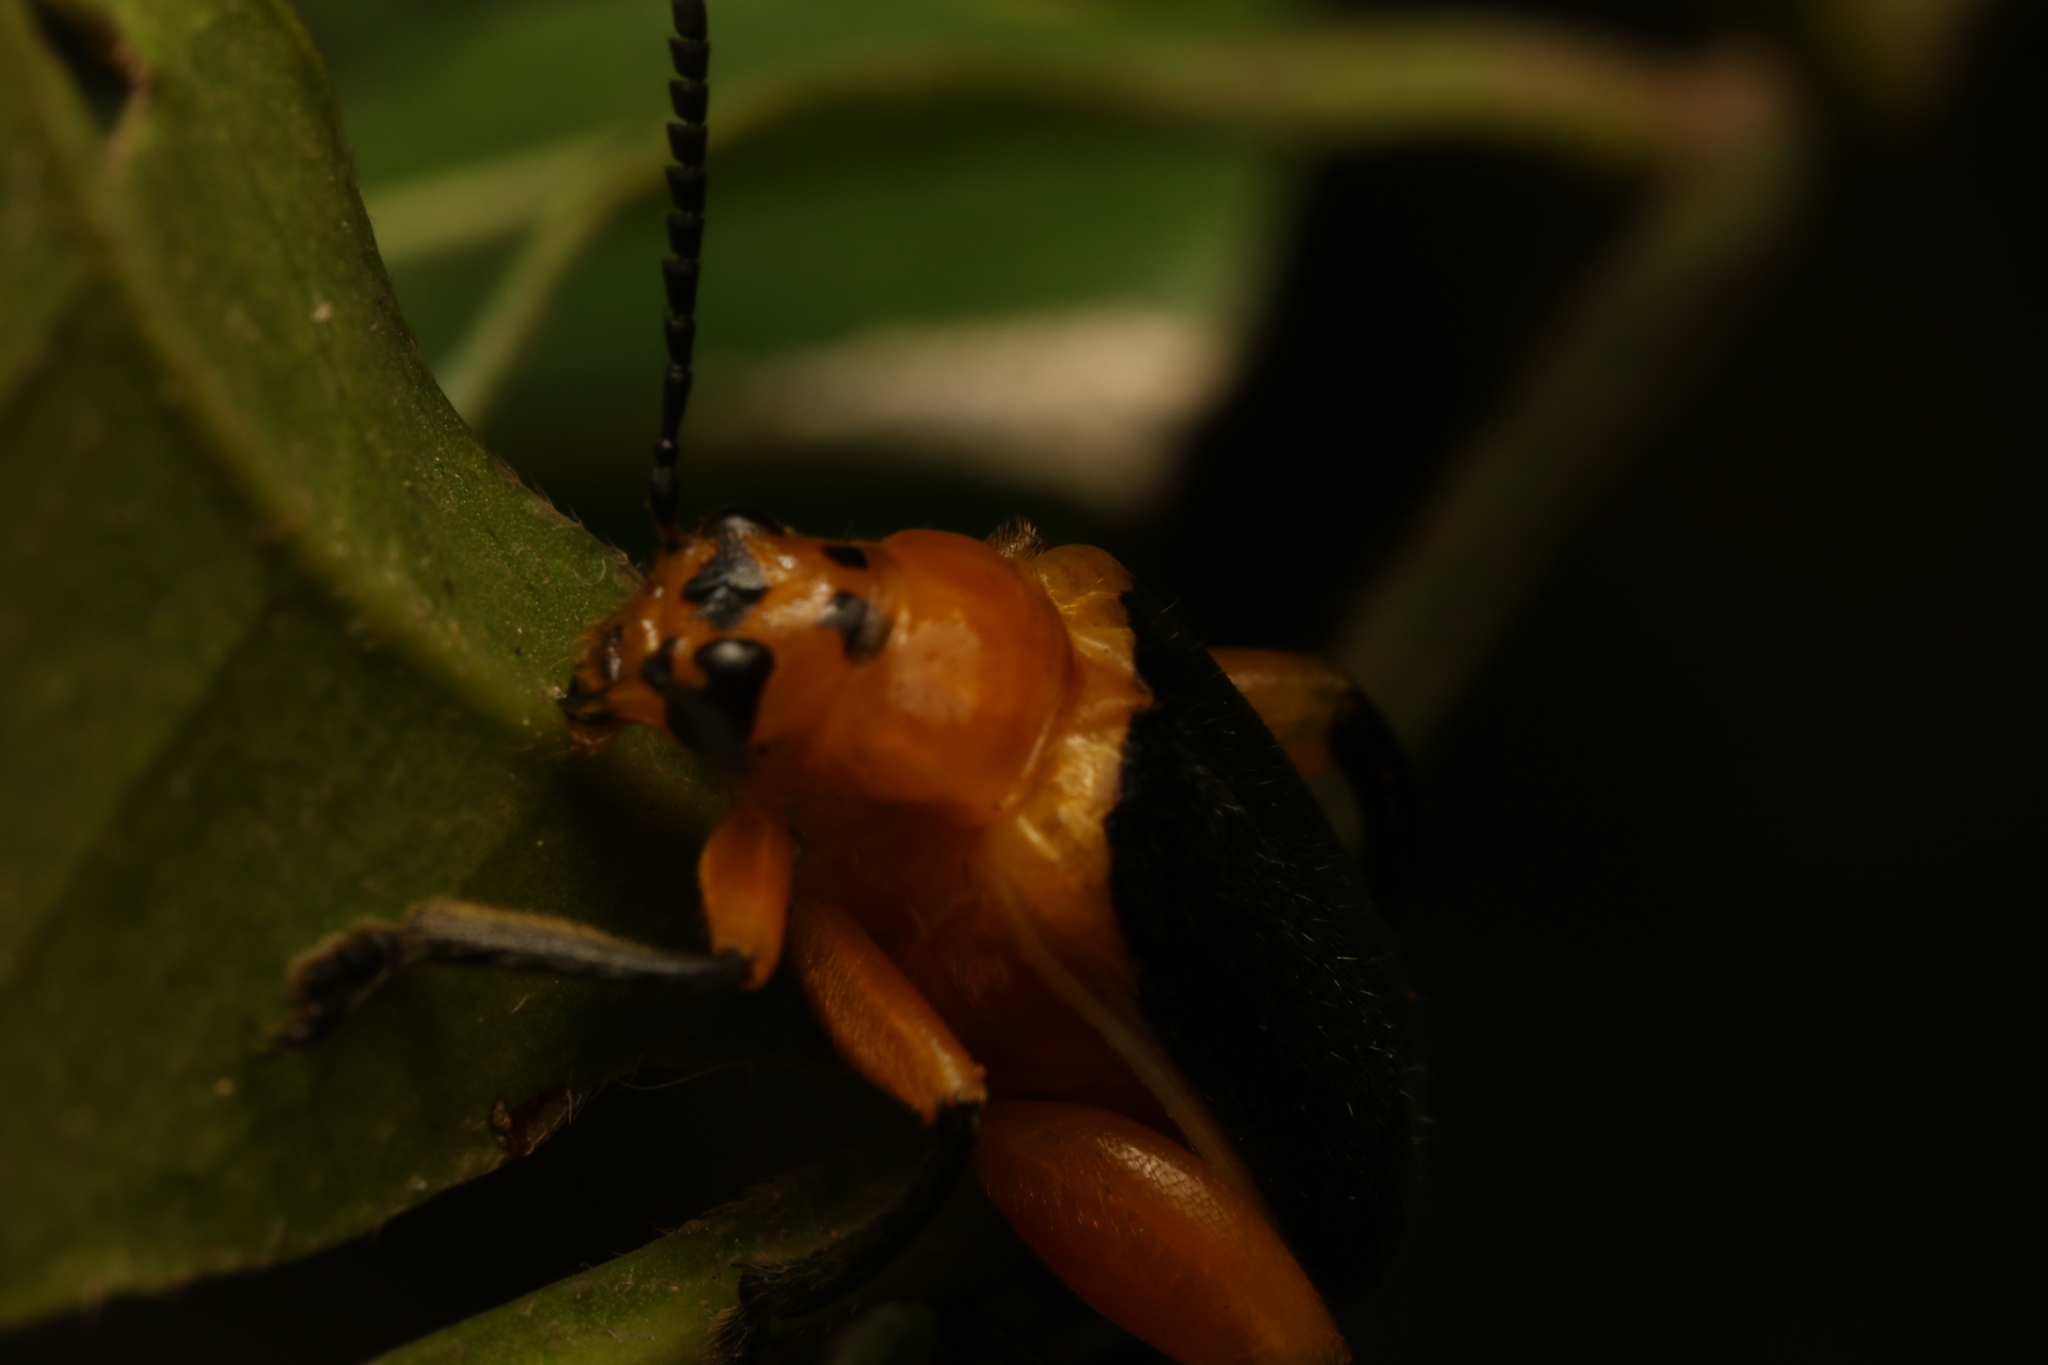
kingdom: Animalia
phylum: Arthropoda
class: Insecta
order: Coleoptera
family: Megalopodidae
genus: Agathomerus
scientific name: Agathomerus sellatus
